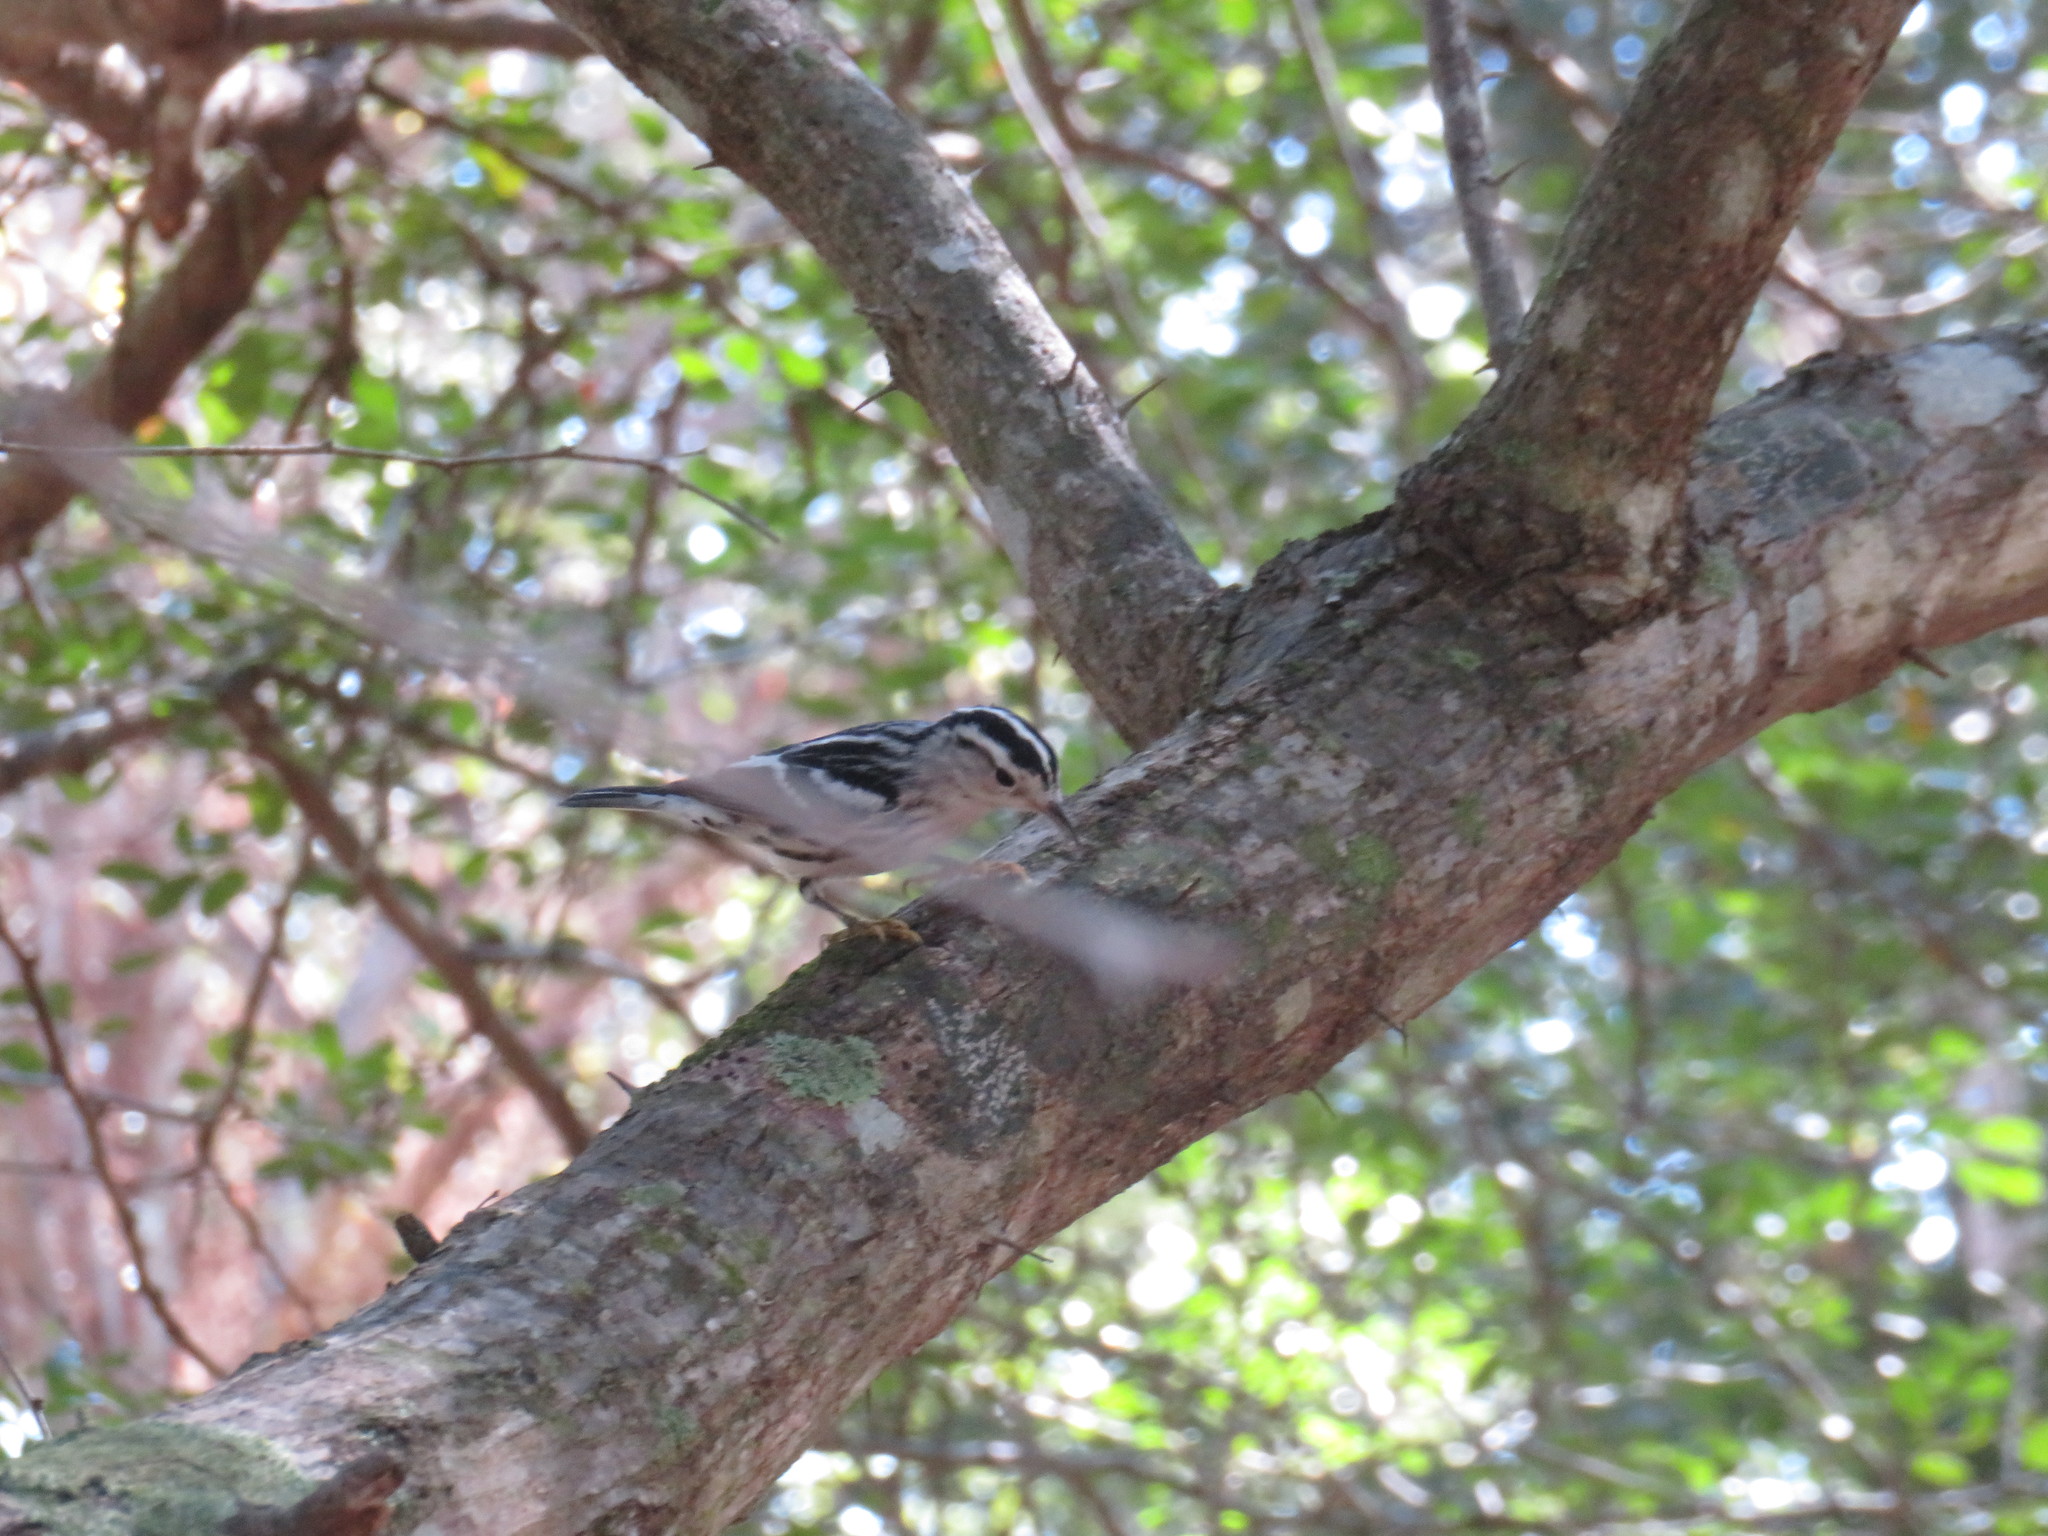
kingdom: Animalia
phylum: Chordata
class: Aves
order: Passeriformes
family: Parulidae
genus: Mniotilta
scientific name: Mniotilta varia
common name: Black-and-white warbler
